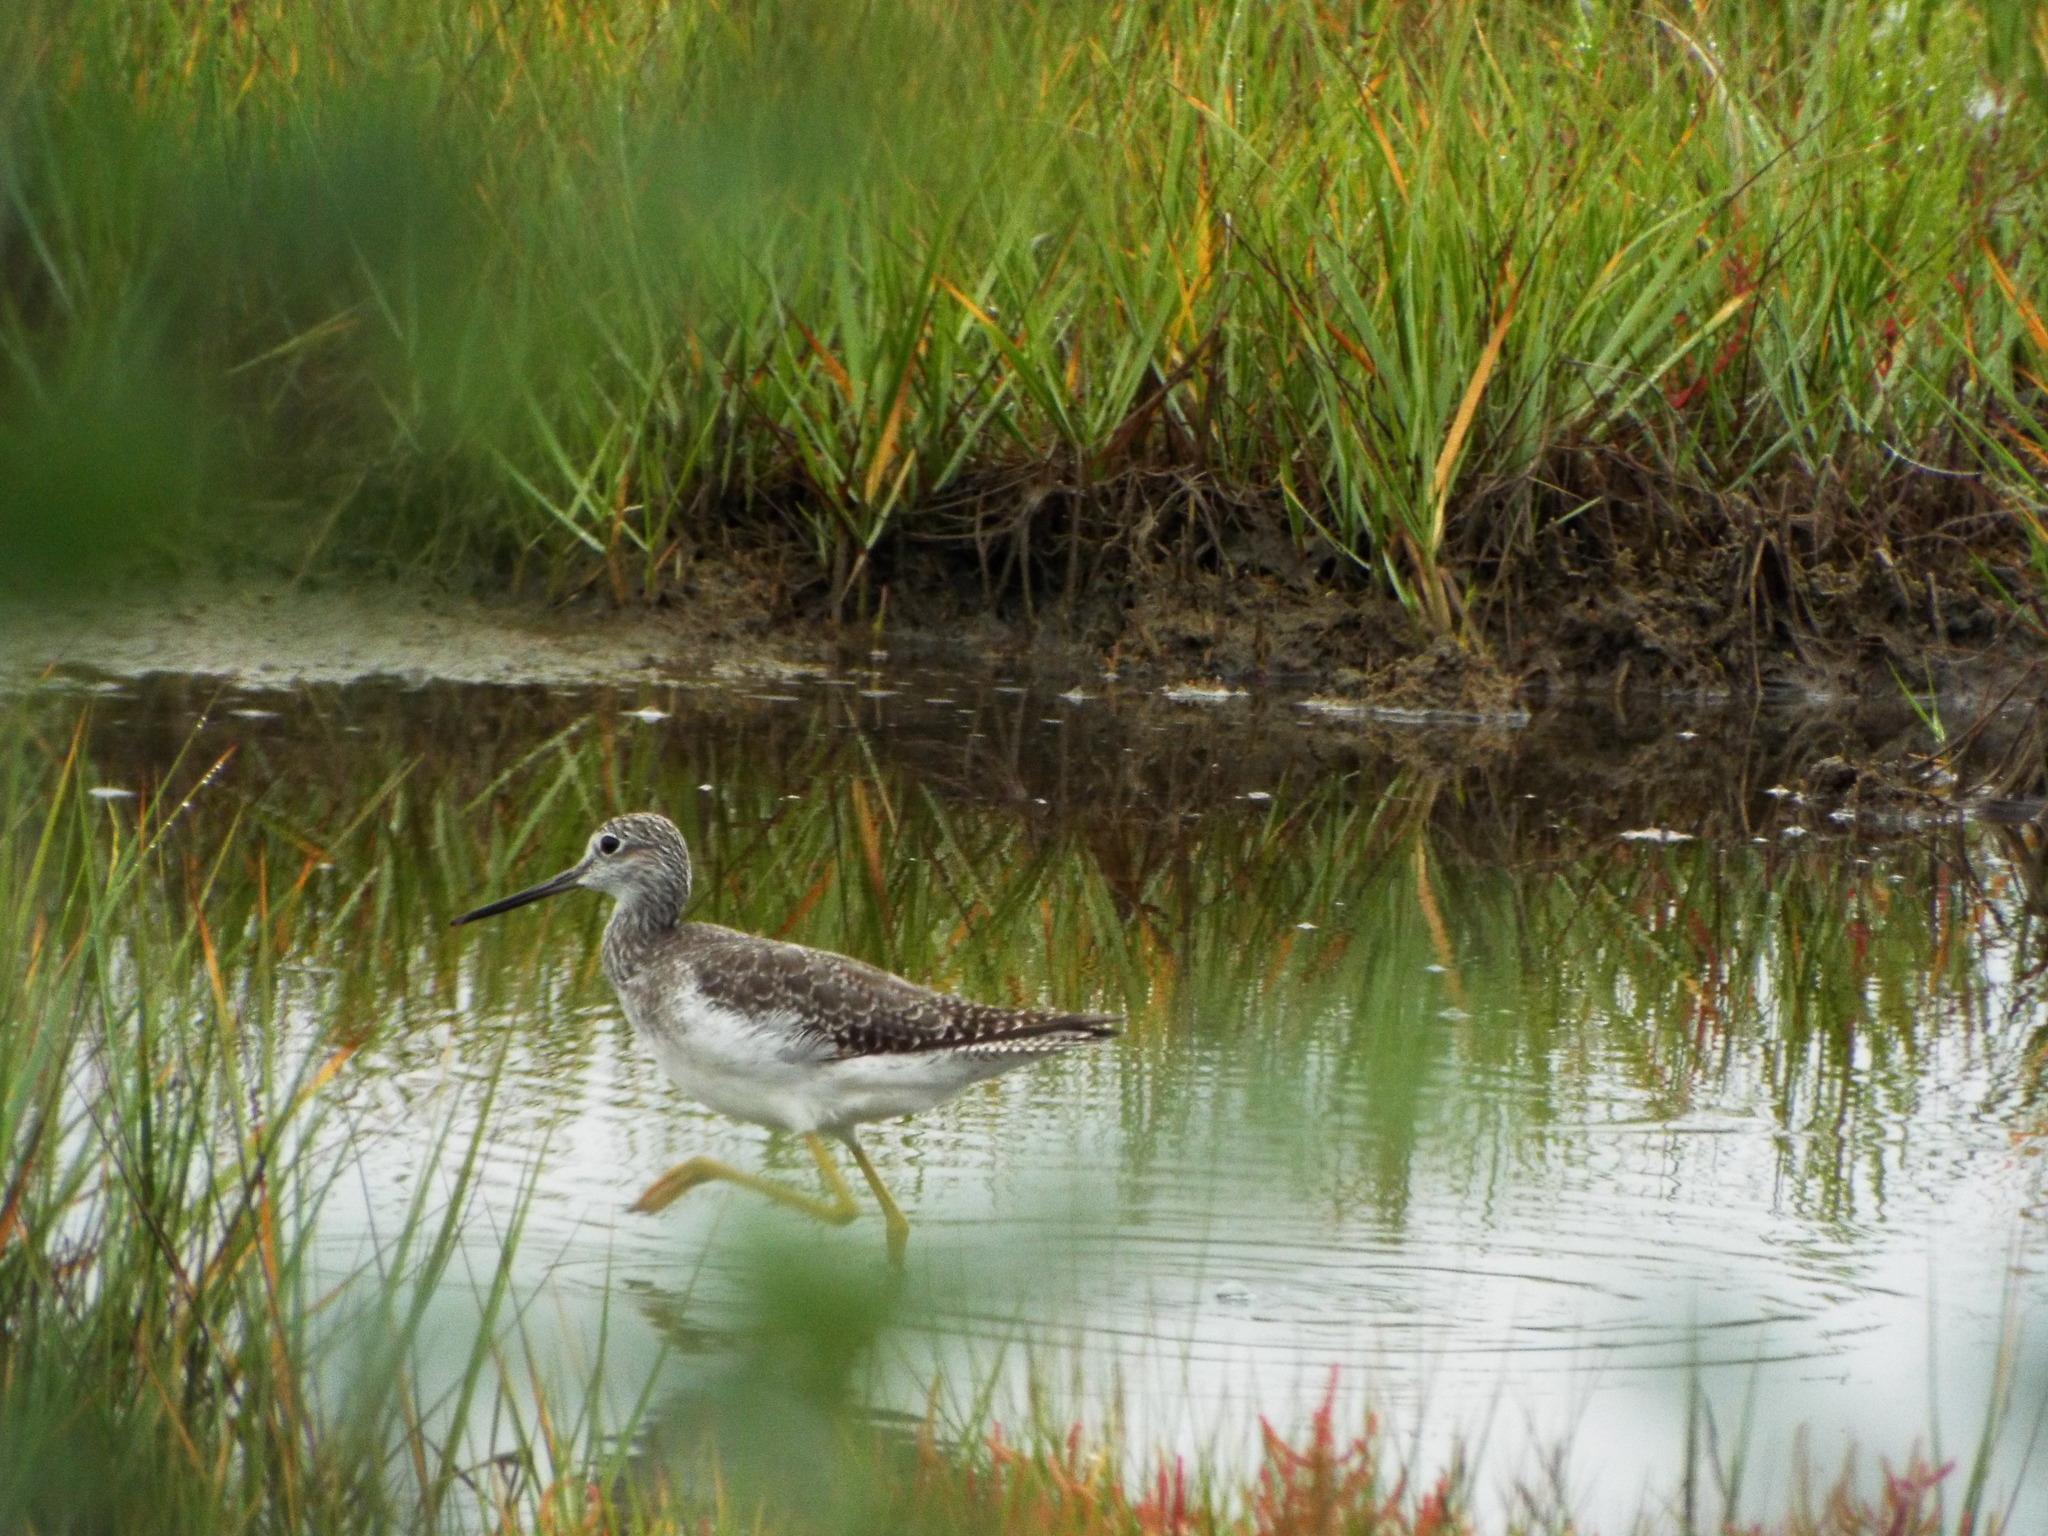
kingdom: Animalia
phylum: Chordata
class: Aves
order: Charadriiformes
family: Scolopacidae
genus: Tringa
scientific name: Tringa melanoleuca
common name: Greater yellowlegs
